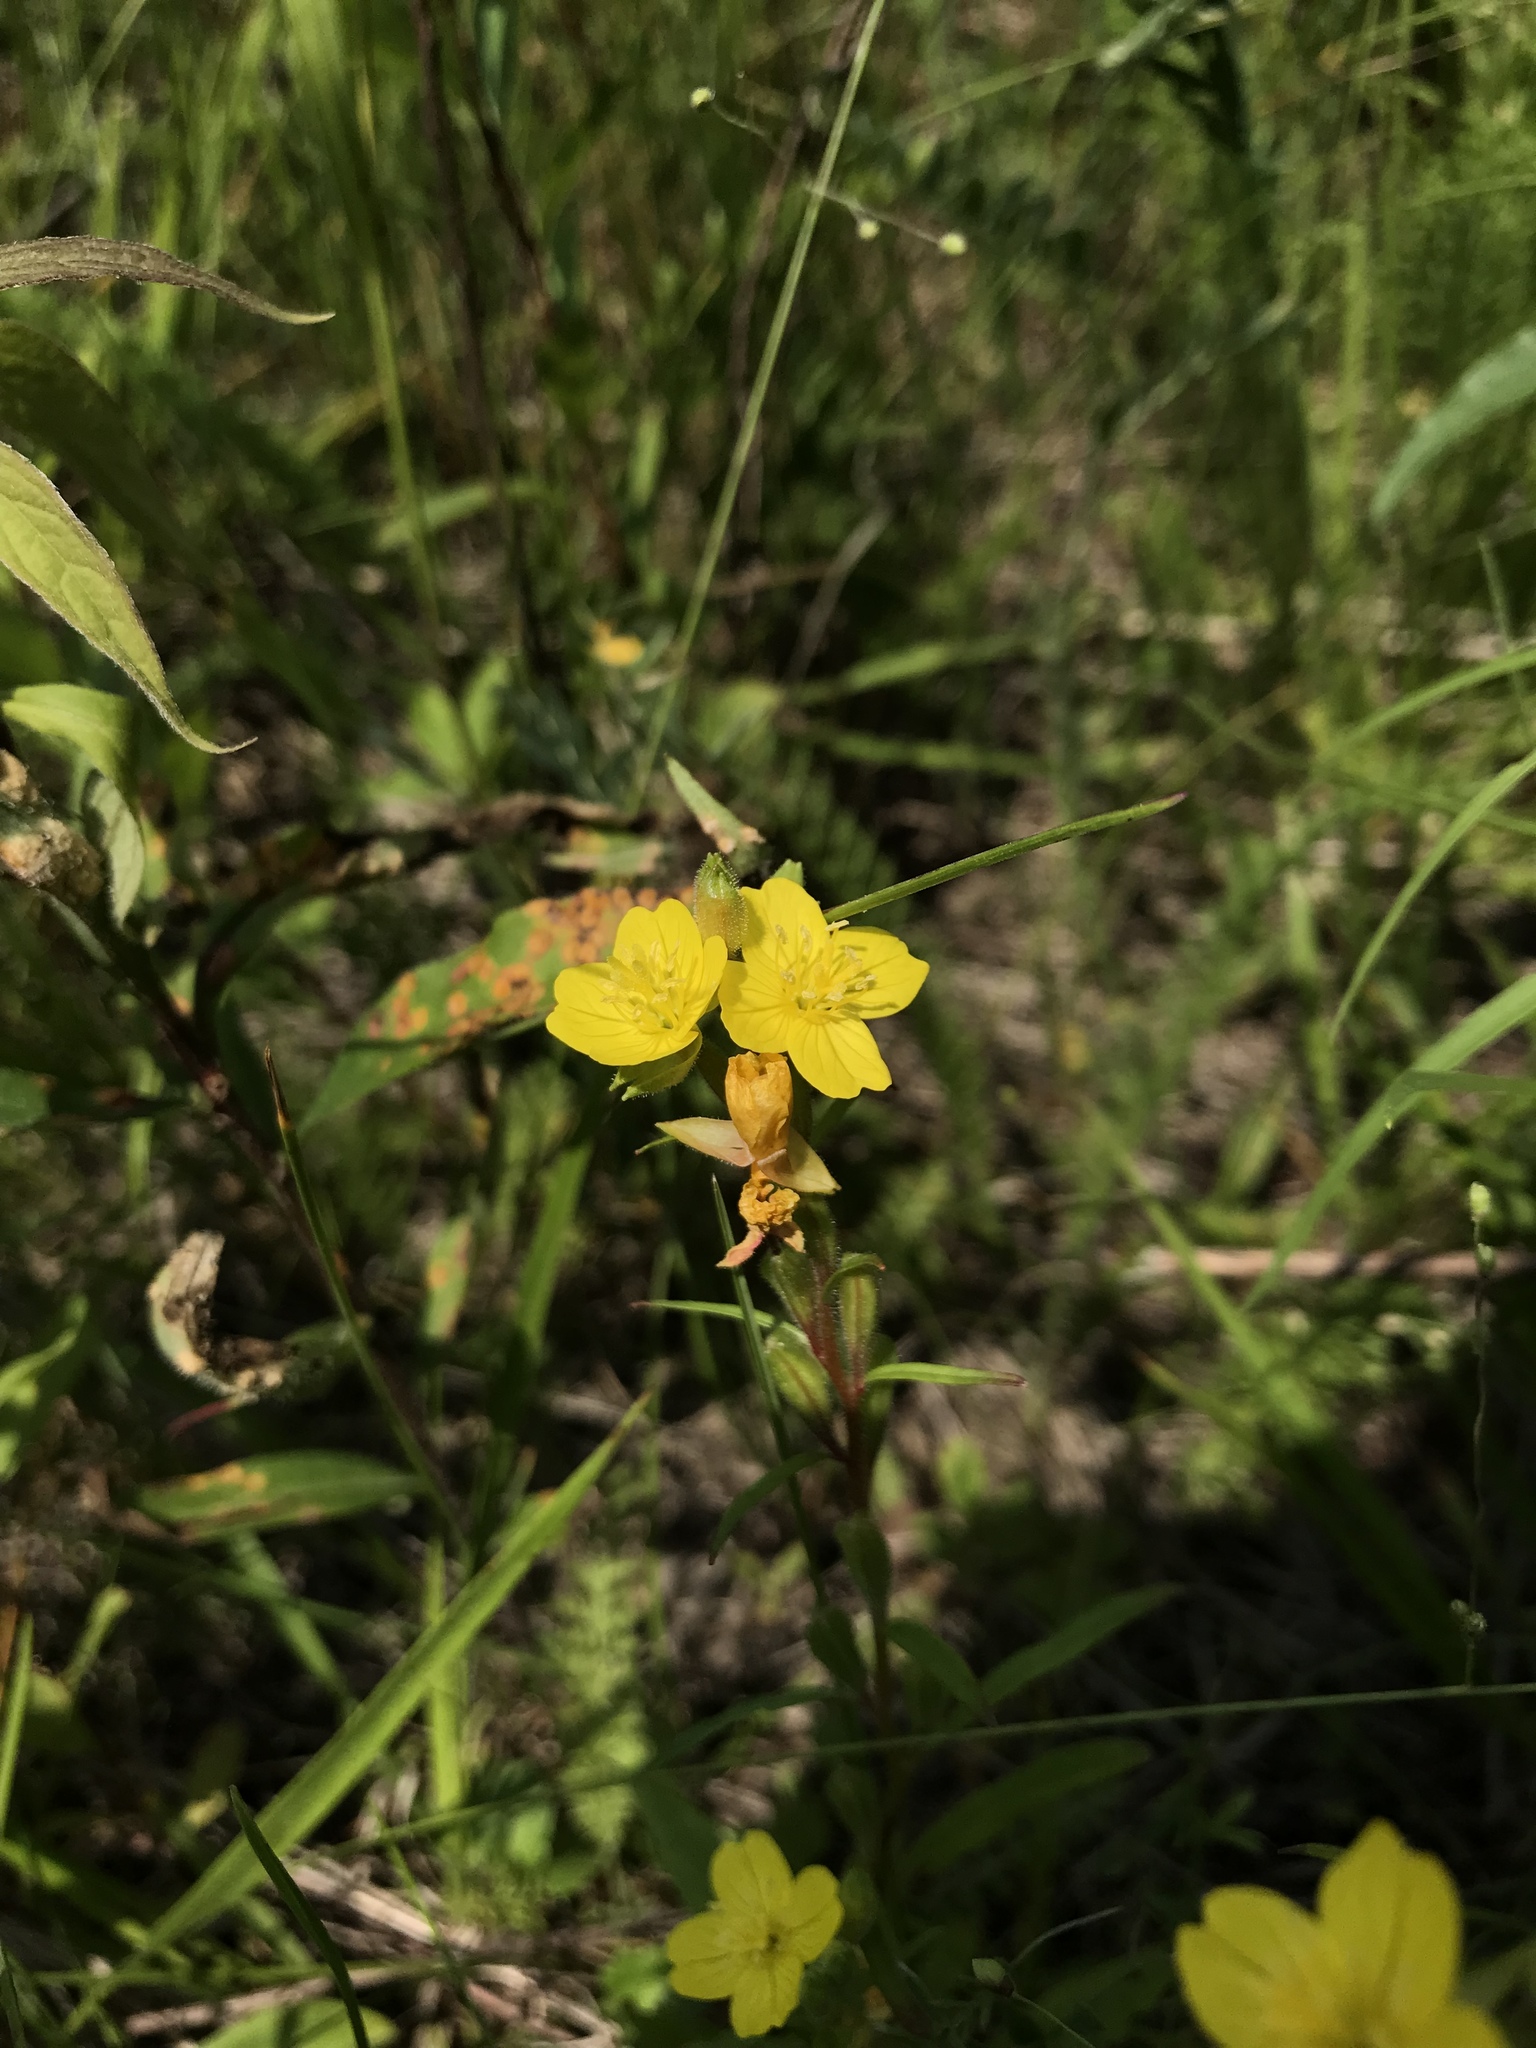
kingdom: Plantae
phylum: Tracheophyta
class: Magnoliopsida
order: Myrtales
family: Onagraceae
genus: Oenothera
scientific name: Oenothera perennis
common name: Small sundrops
